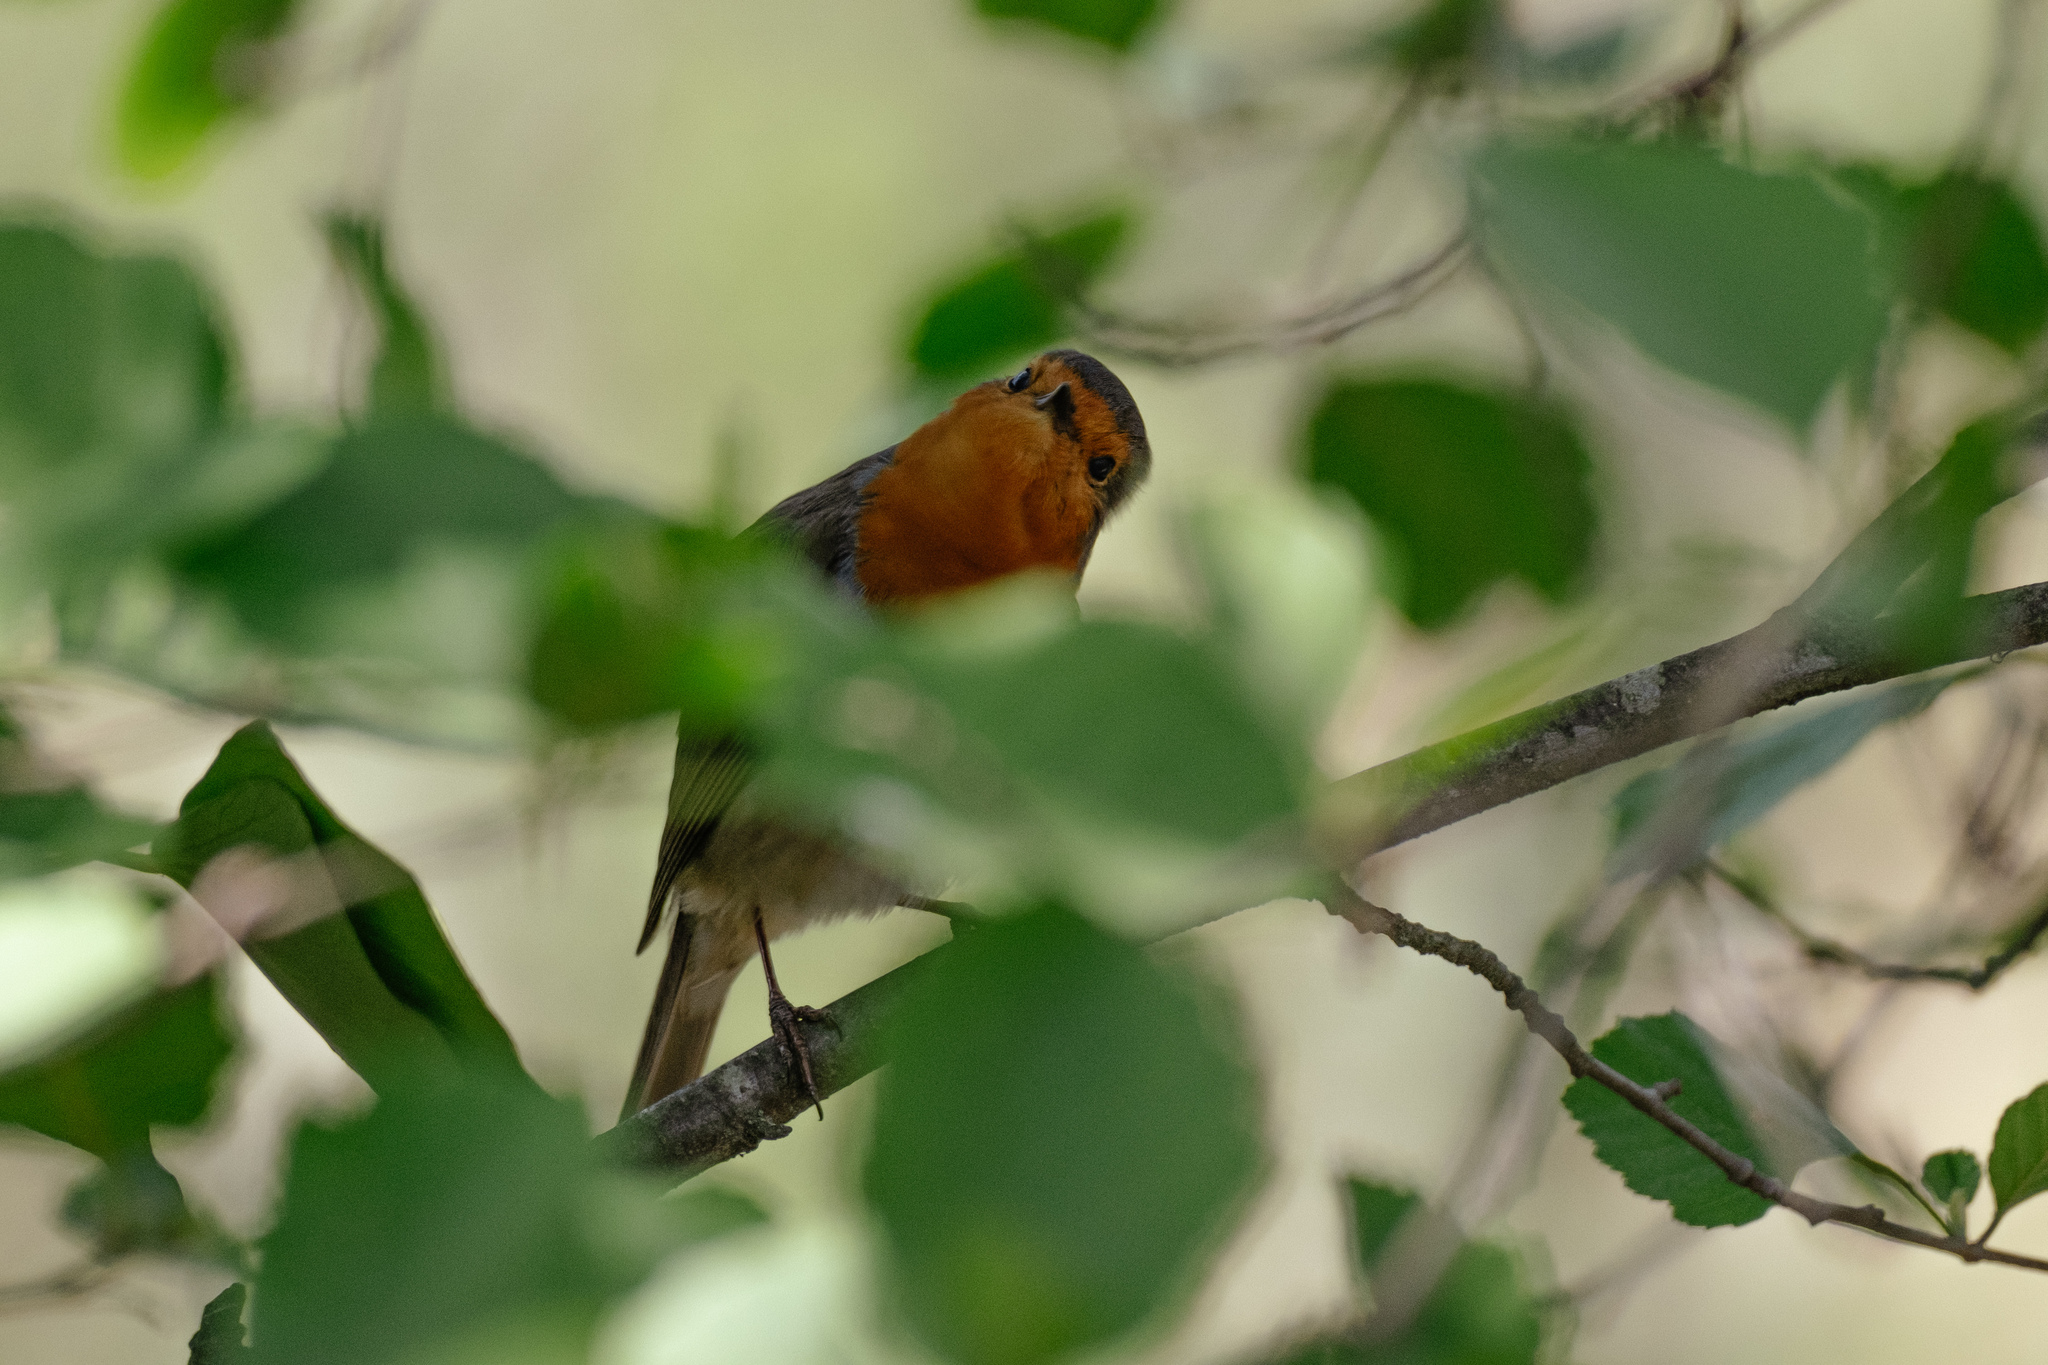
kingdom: Animalia
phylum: Chordata
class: Aves
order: Passeriformes
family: Muscicapidae
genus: Erithacus
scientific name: Erithacus rubecula
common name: European robin
